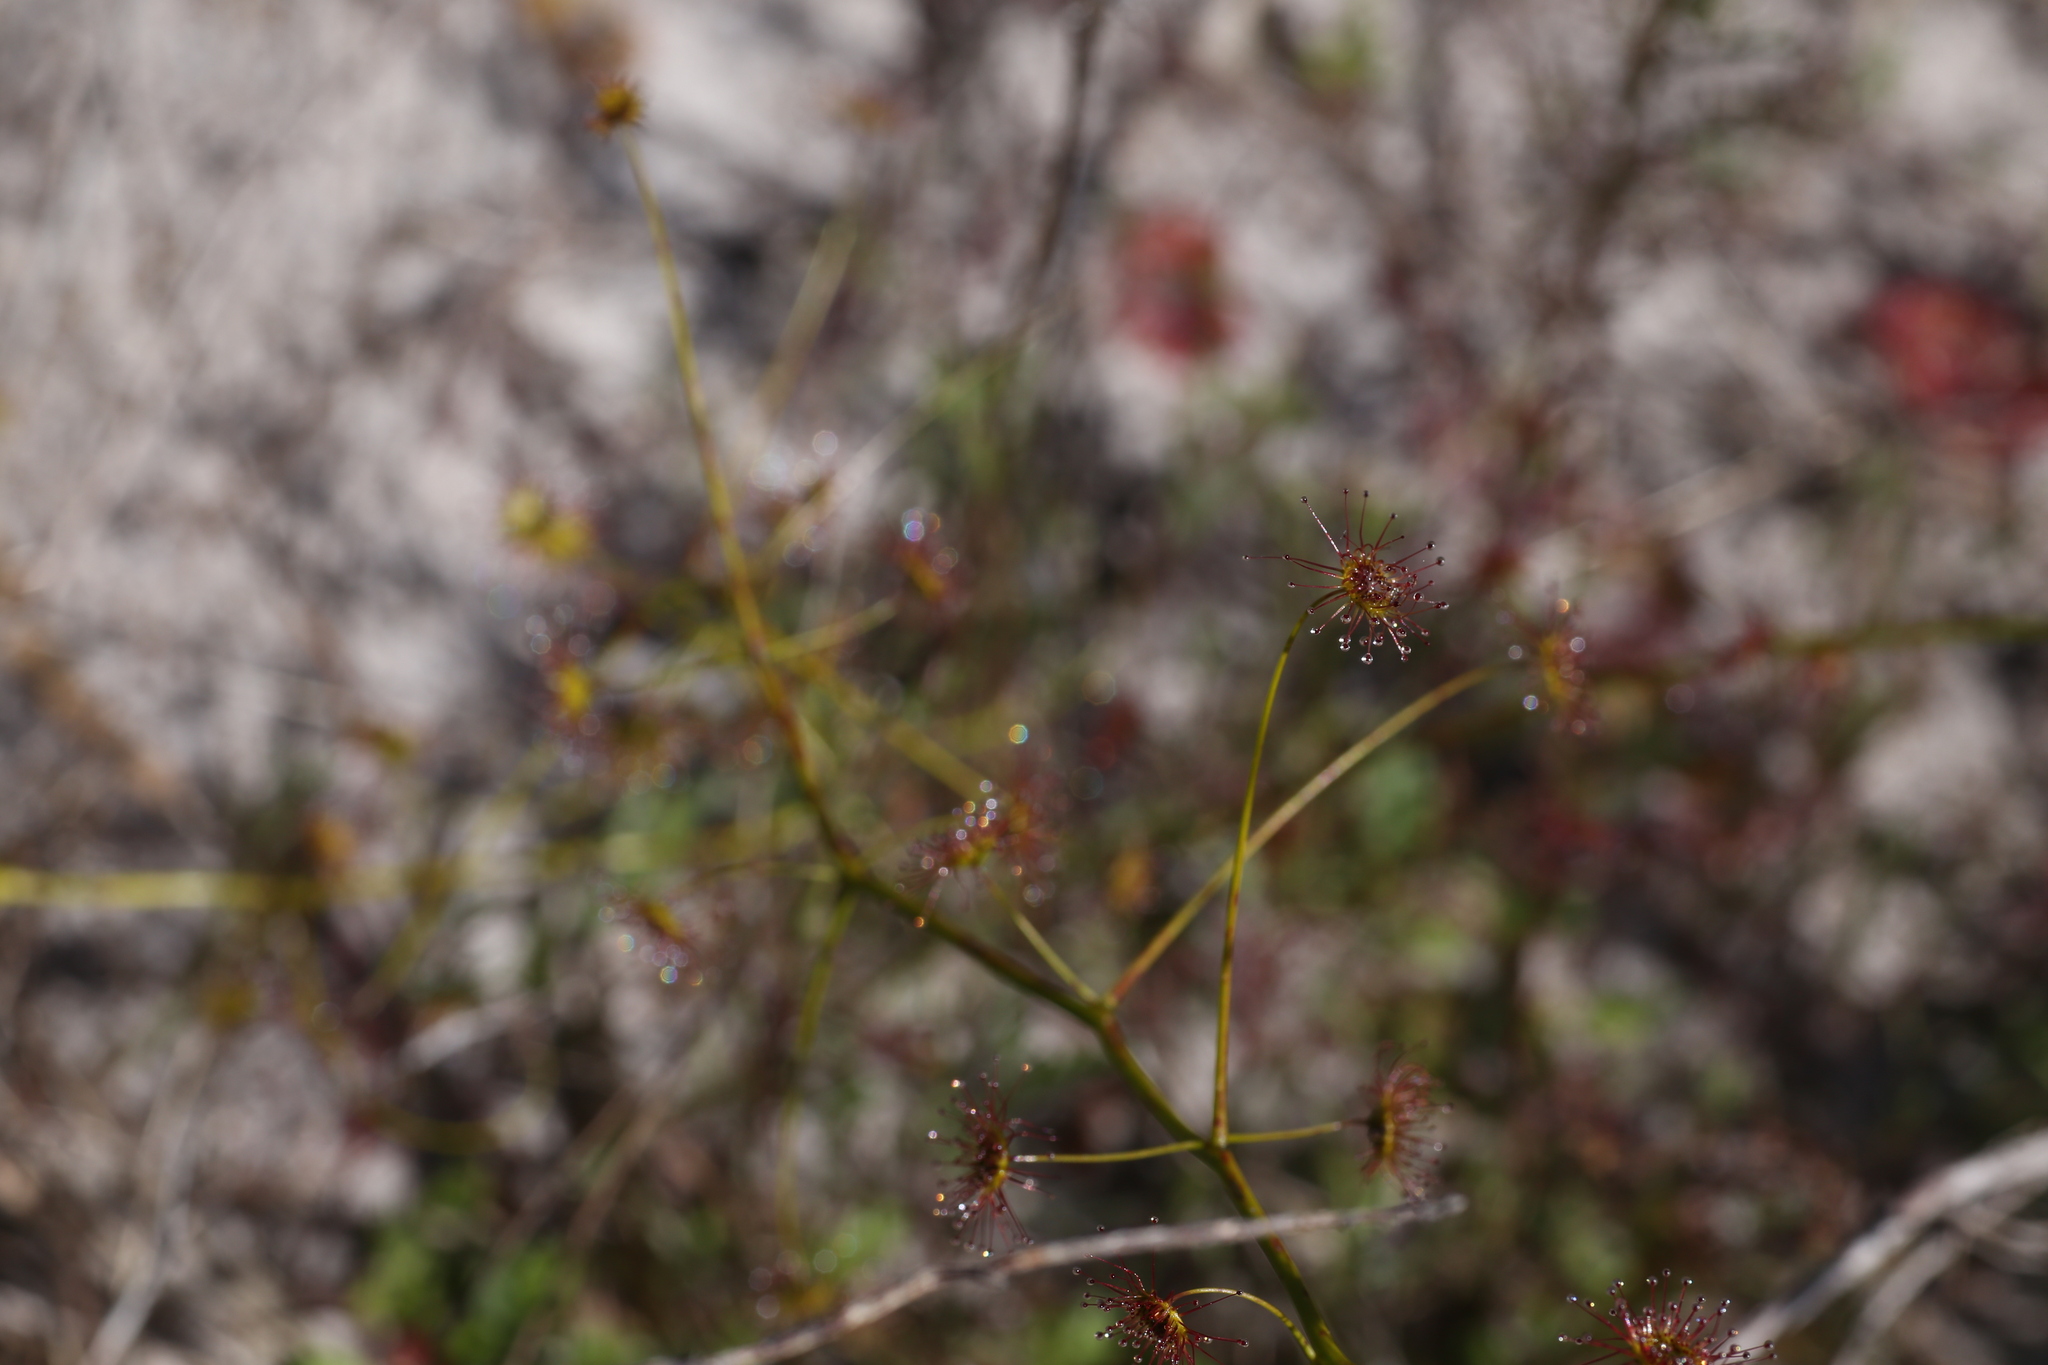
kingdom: Plantae
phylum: Tracheophyta
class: Magnoliopsida
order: Caryophyllales
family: Droseraceae
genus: Drosera
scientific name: Drosera pallida
